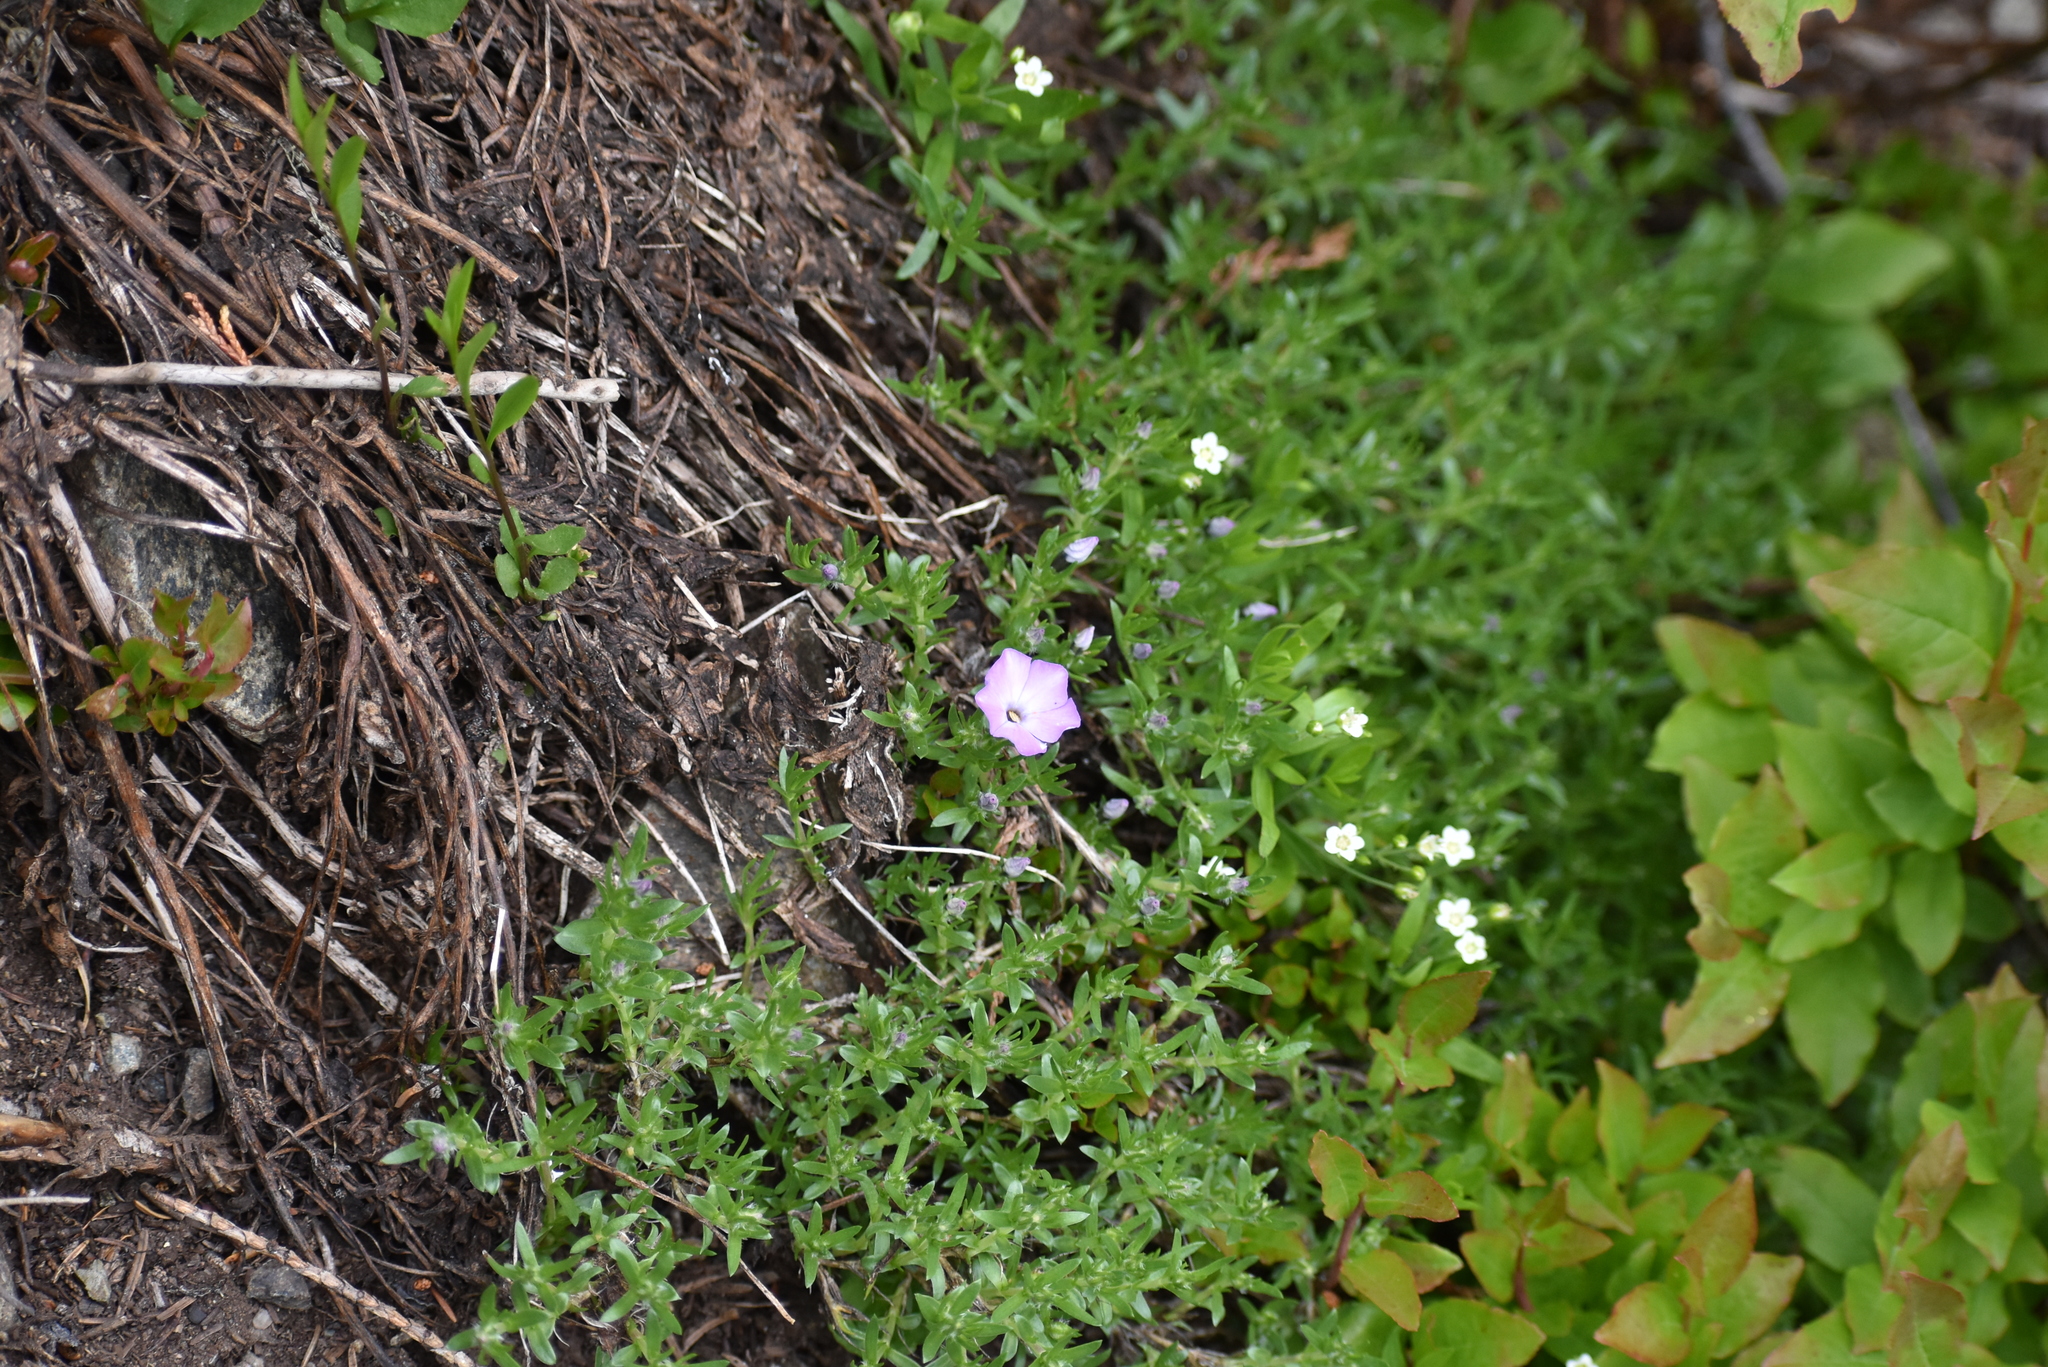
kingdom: Plantae
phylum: Tracheophyta
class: Magnoliopsida
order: Ericales
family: Polemoniaceae
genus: Phlox
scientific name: Phlox diffusa
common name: Mat phlox
